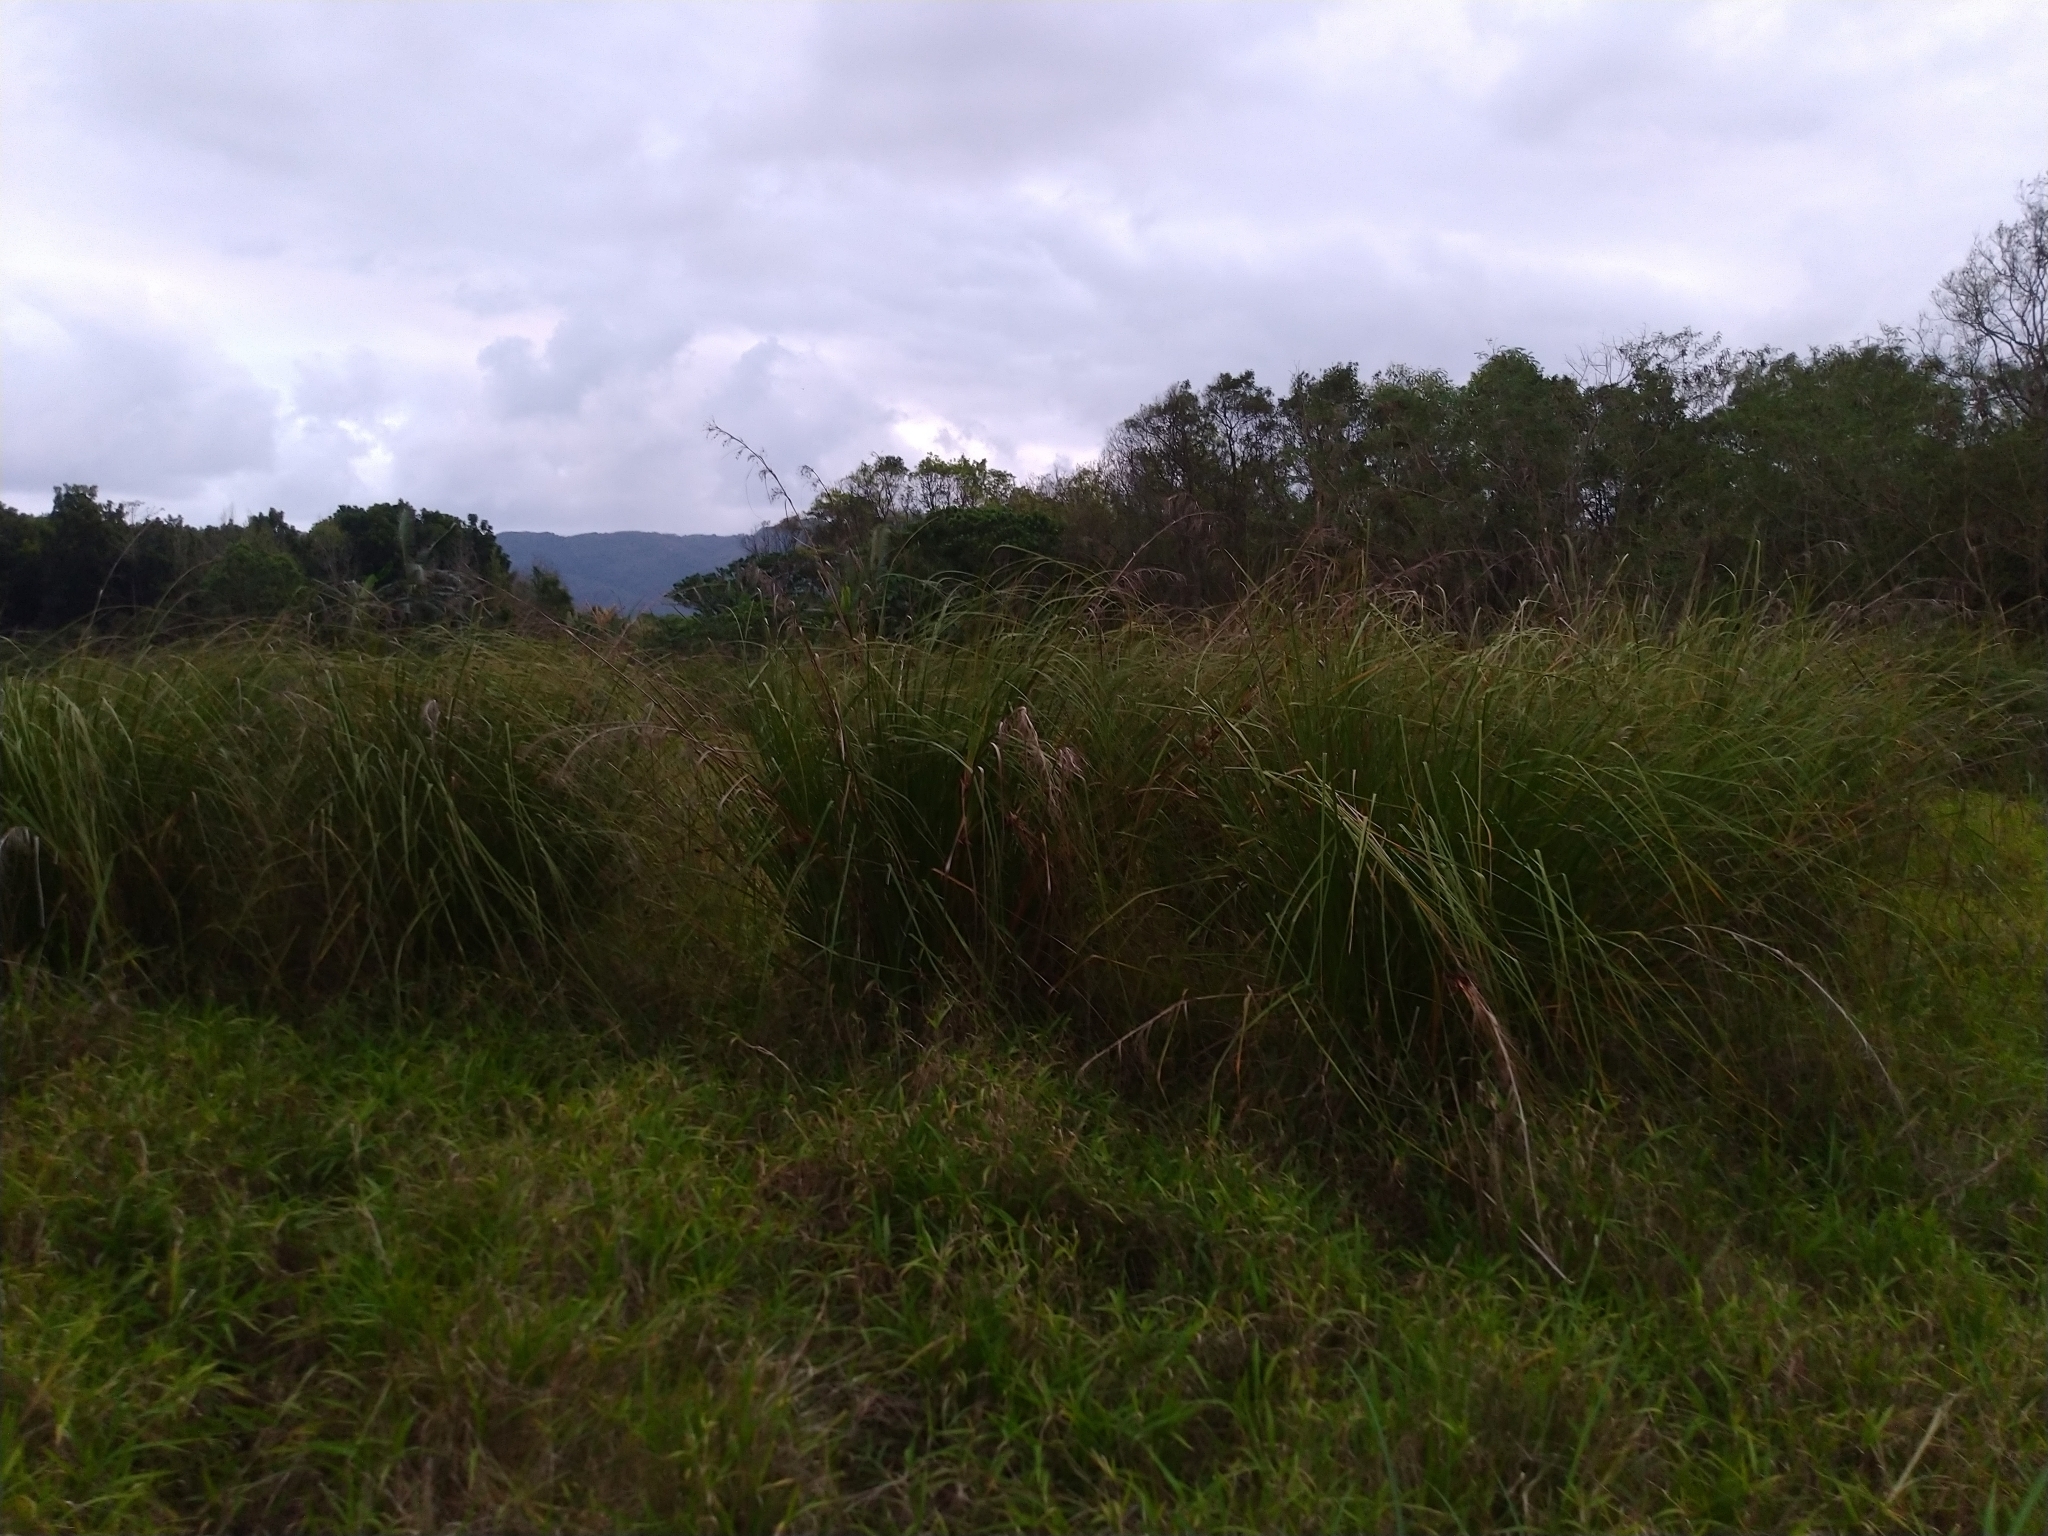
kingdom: Plantae
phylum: Tracheophyta
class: Liliopsida
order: Poales
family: Cyperaceae
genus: Cladium
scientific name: Cladium mariscus
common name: Great fen-sedge
